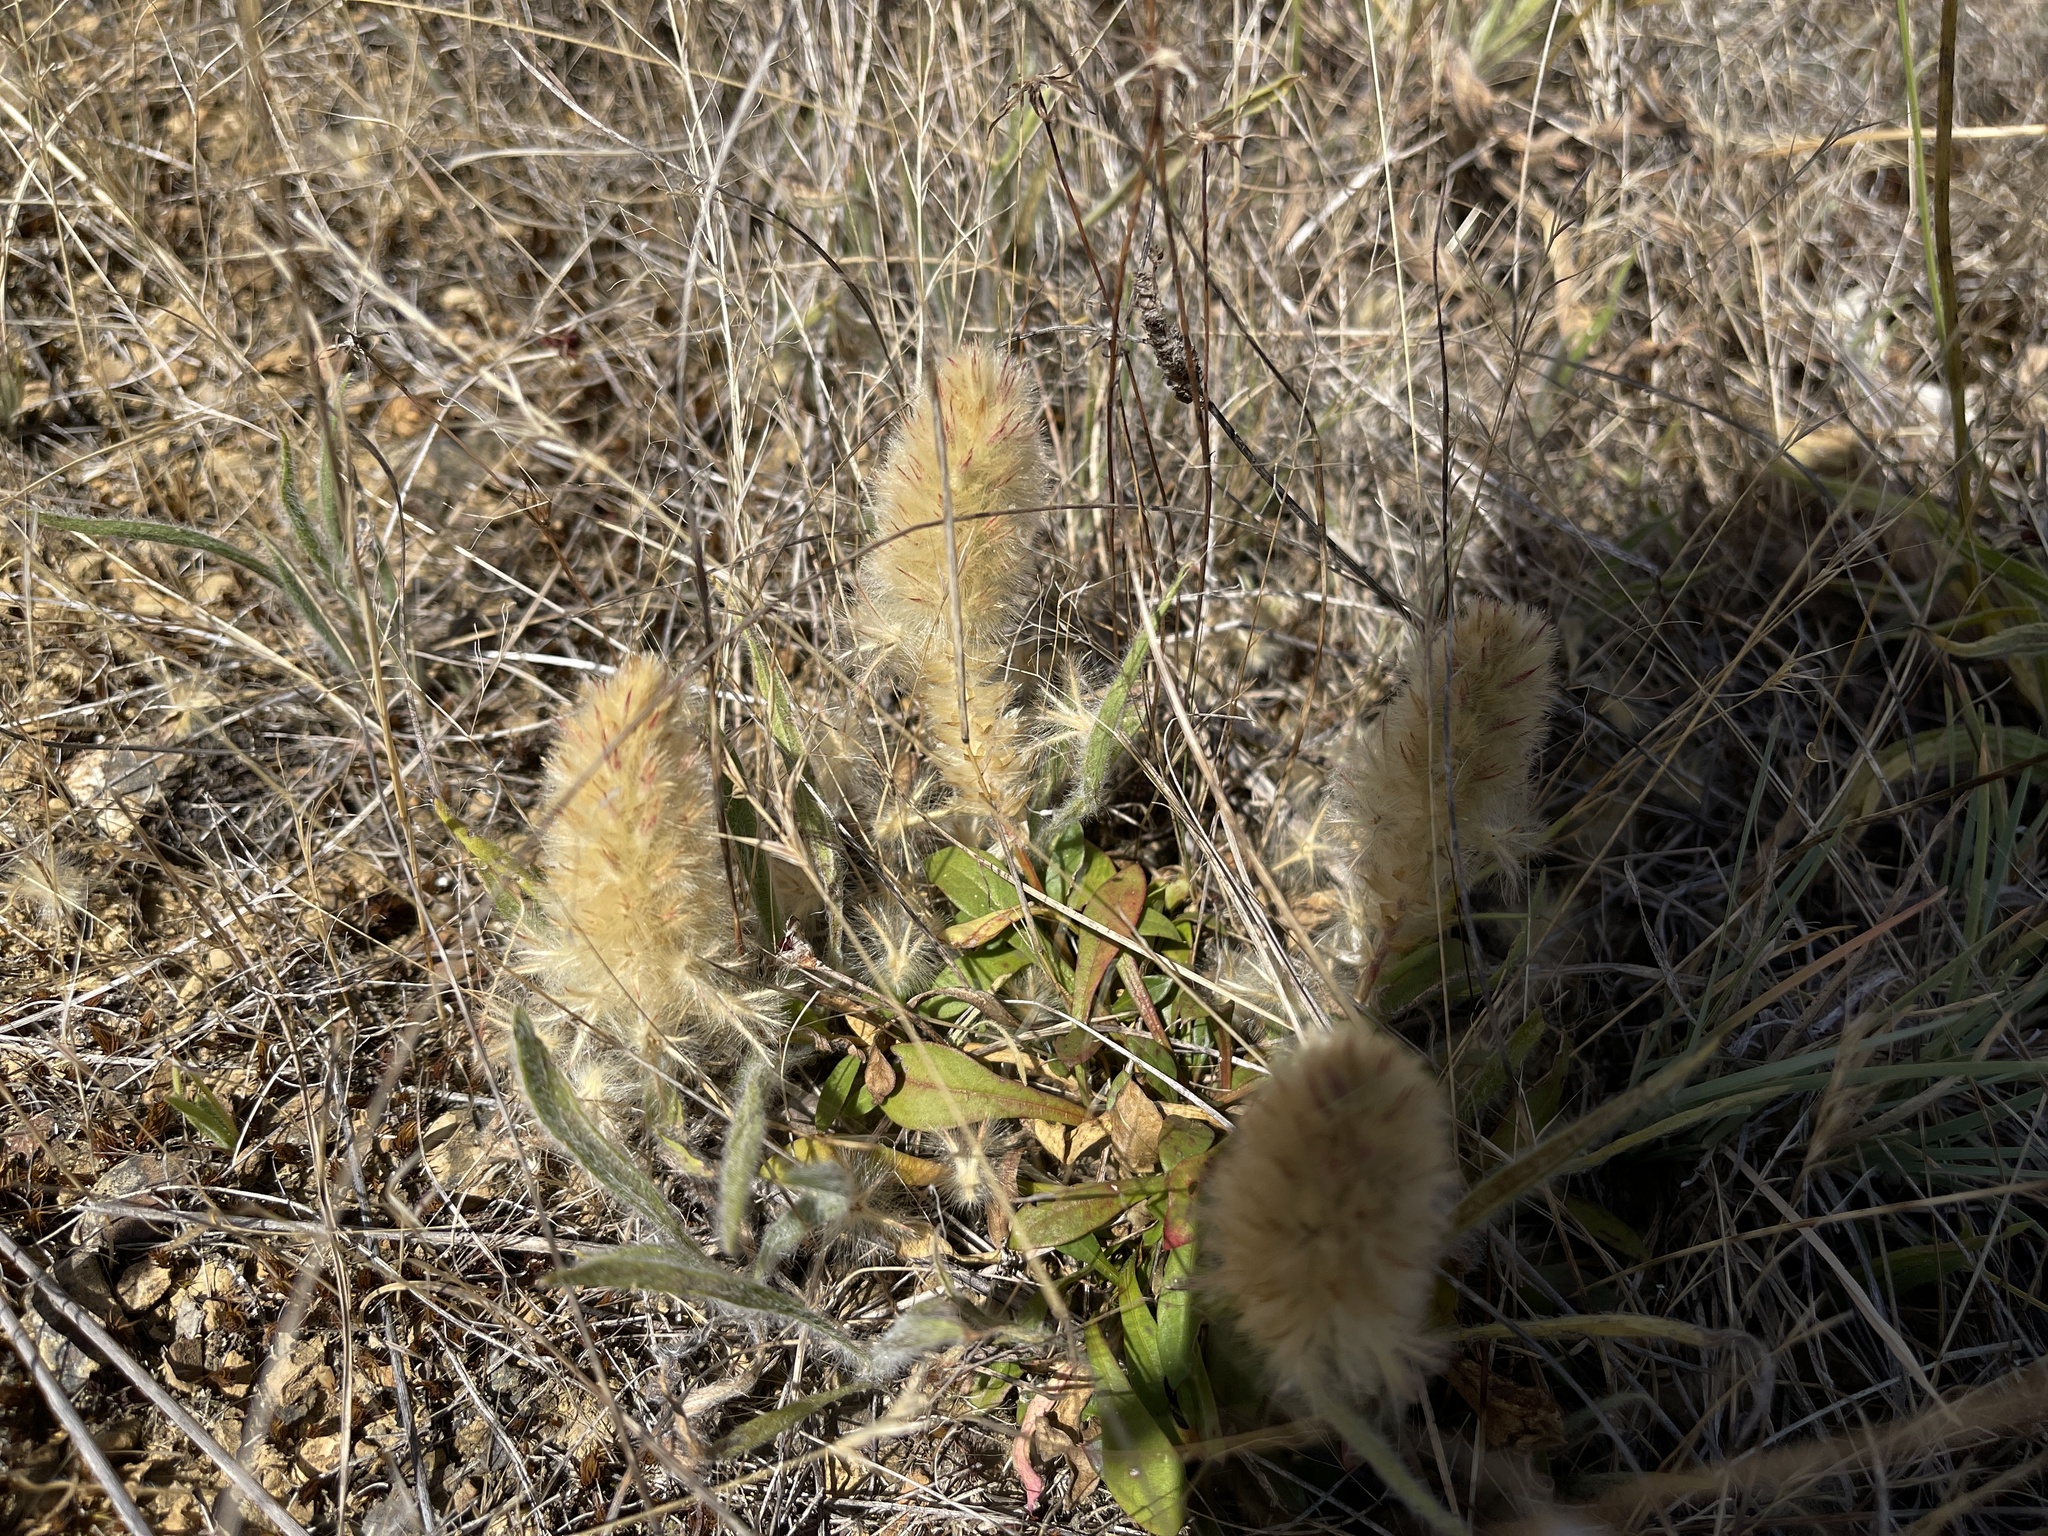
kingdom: Plantae
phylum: Tracheophyta
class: Magnoliopsida
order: Caryophyllales
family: Amaranthaceae
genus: Ptilotus
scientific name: Ptilotus spathulatus
